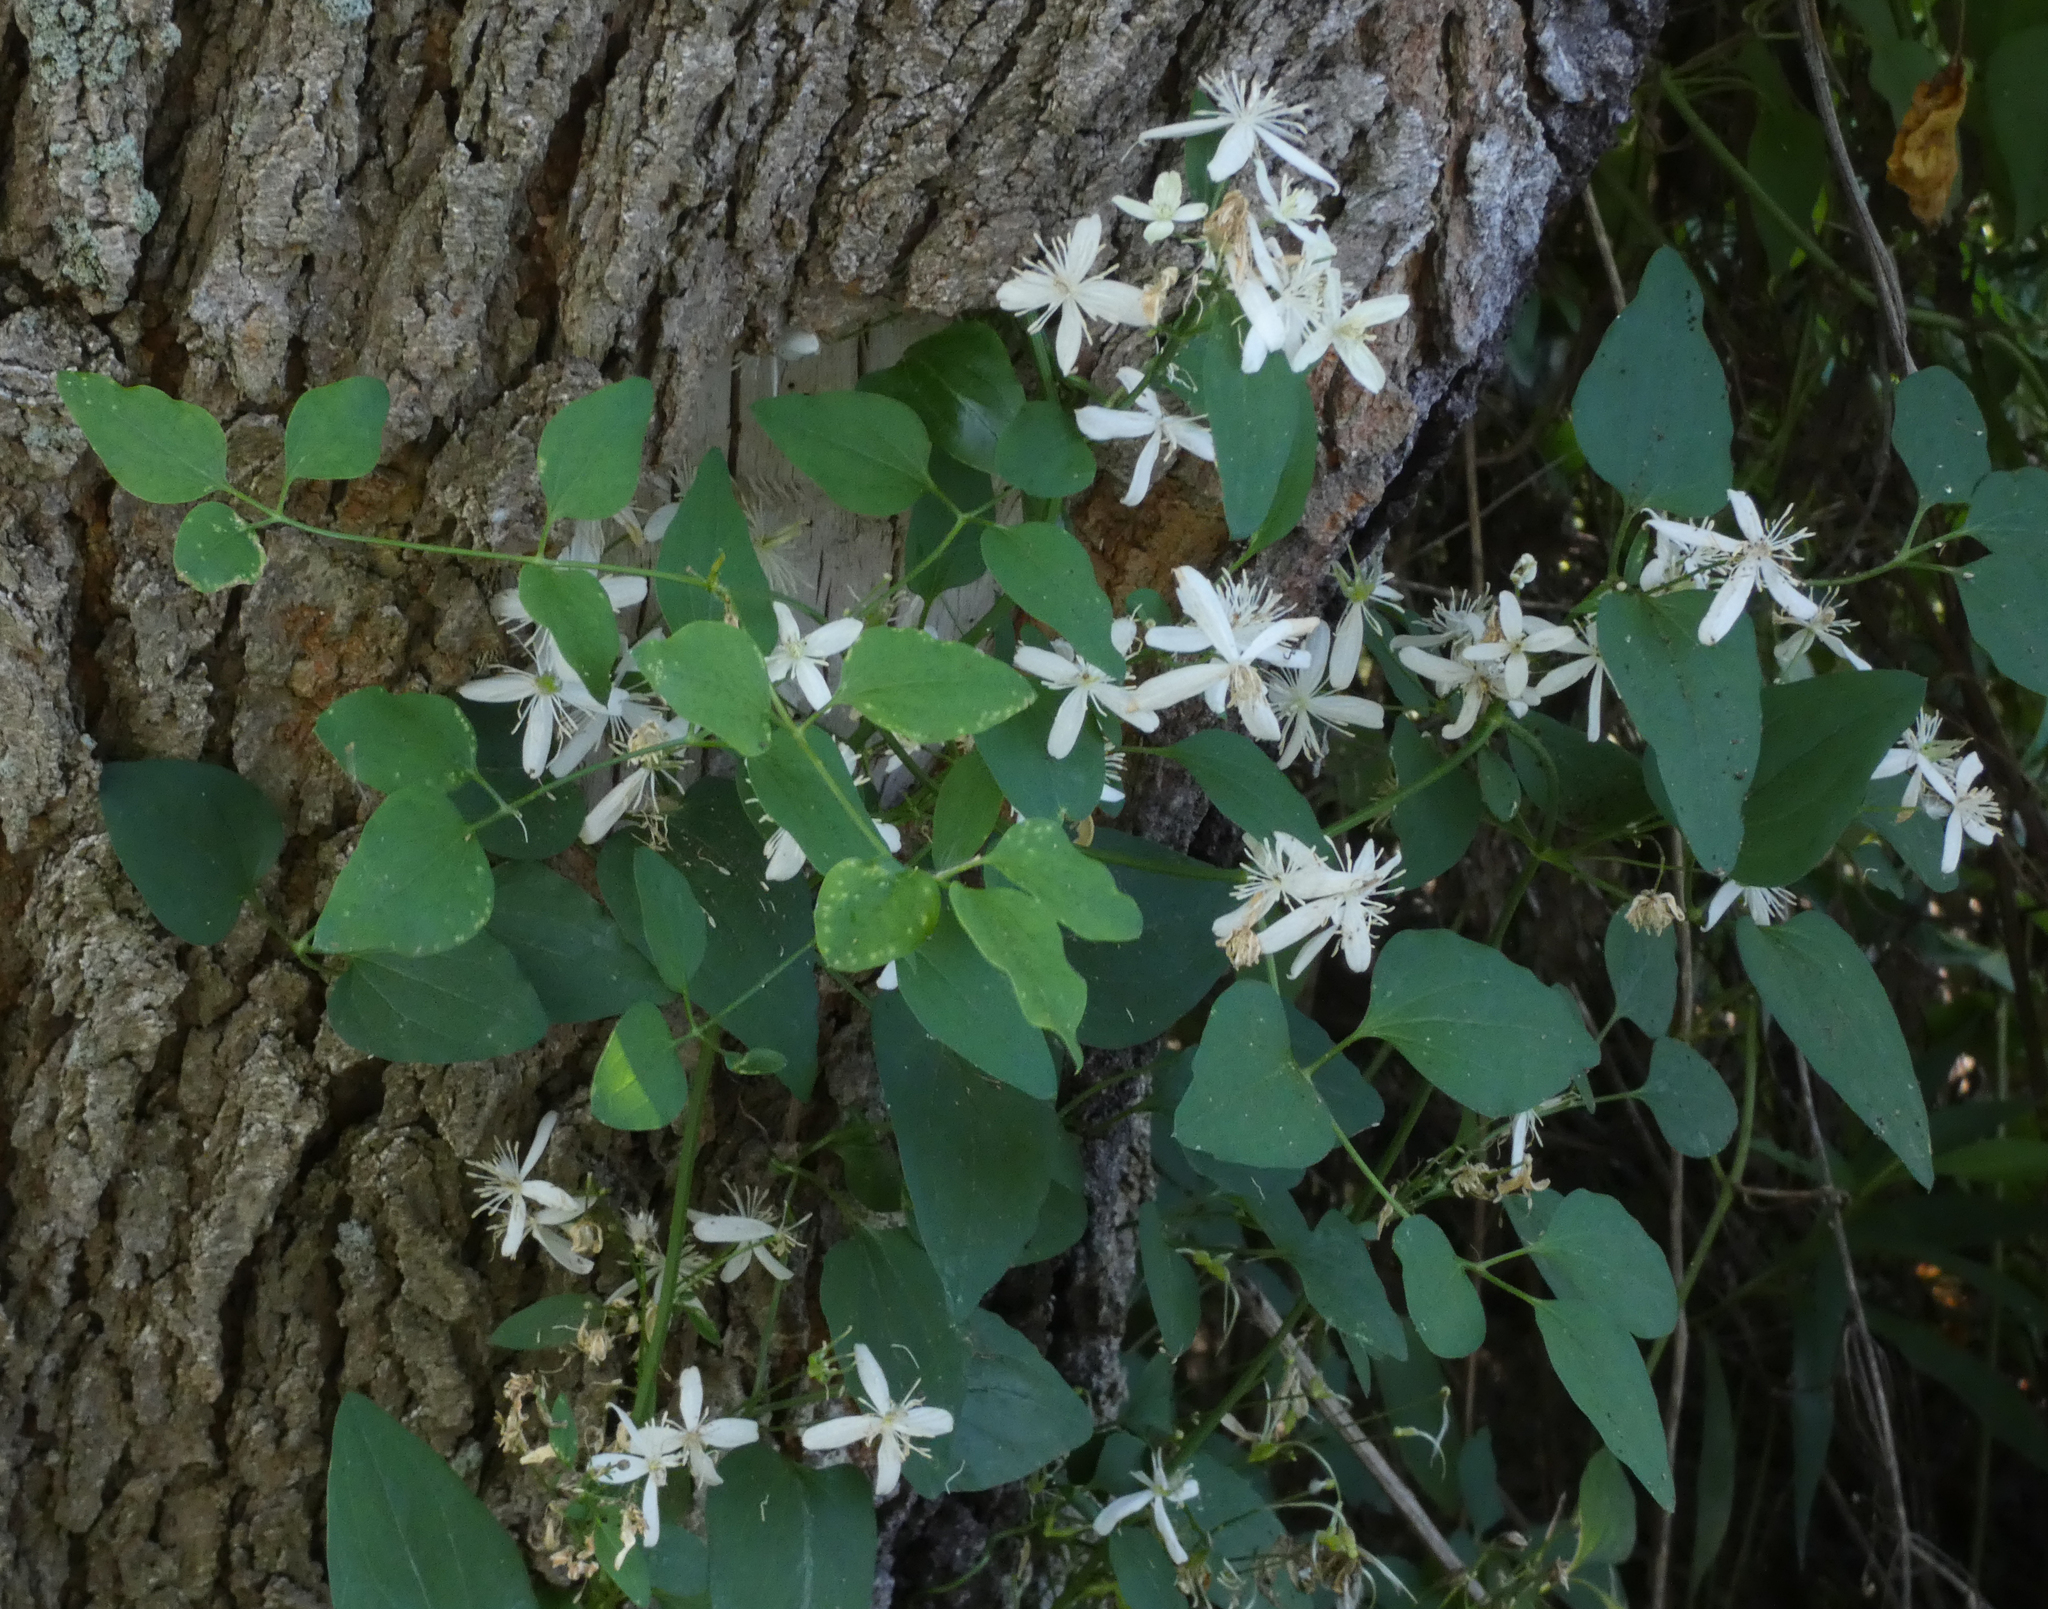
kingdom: Plantae
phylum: Tracheophyta
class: Magnoliopsida
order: Ranunculales
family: Ranunculaceae
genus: Clematis
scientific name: Clematis terniflora
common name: Sweet autumn clematis
